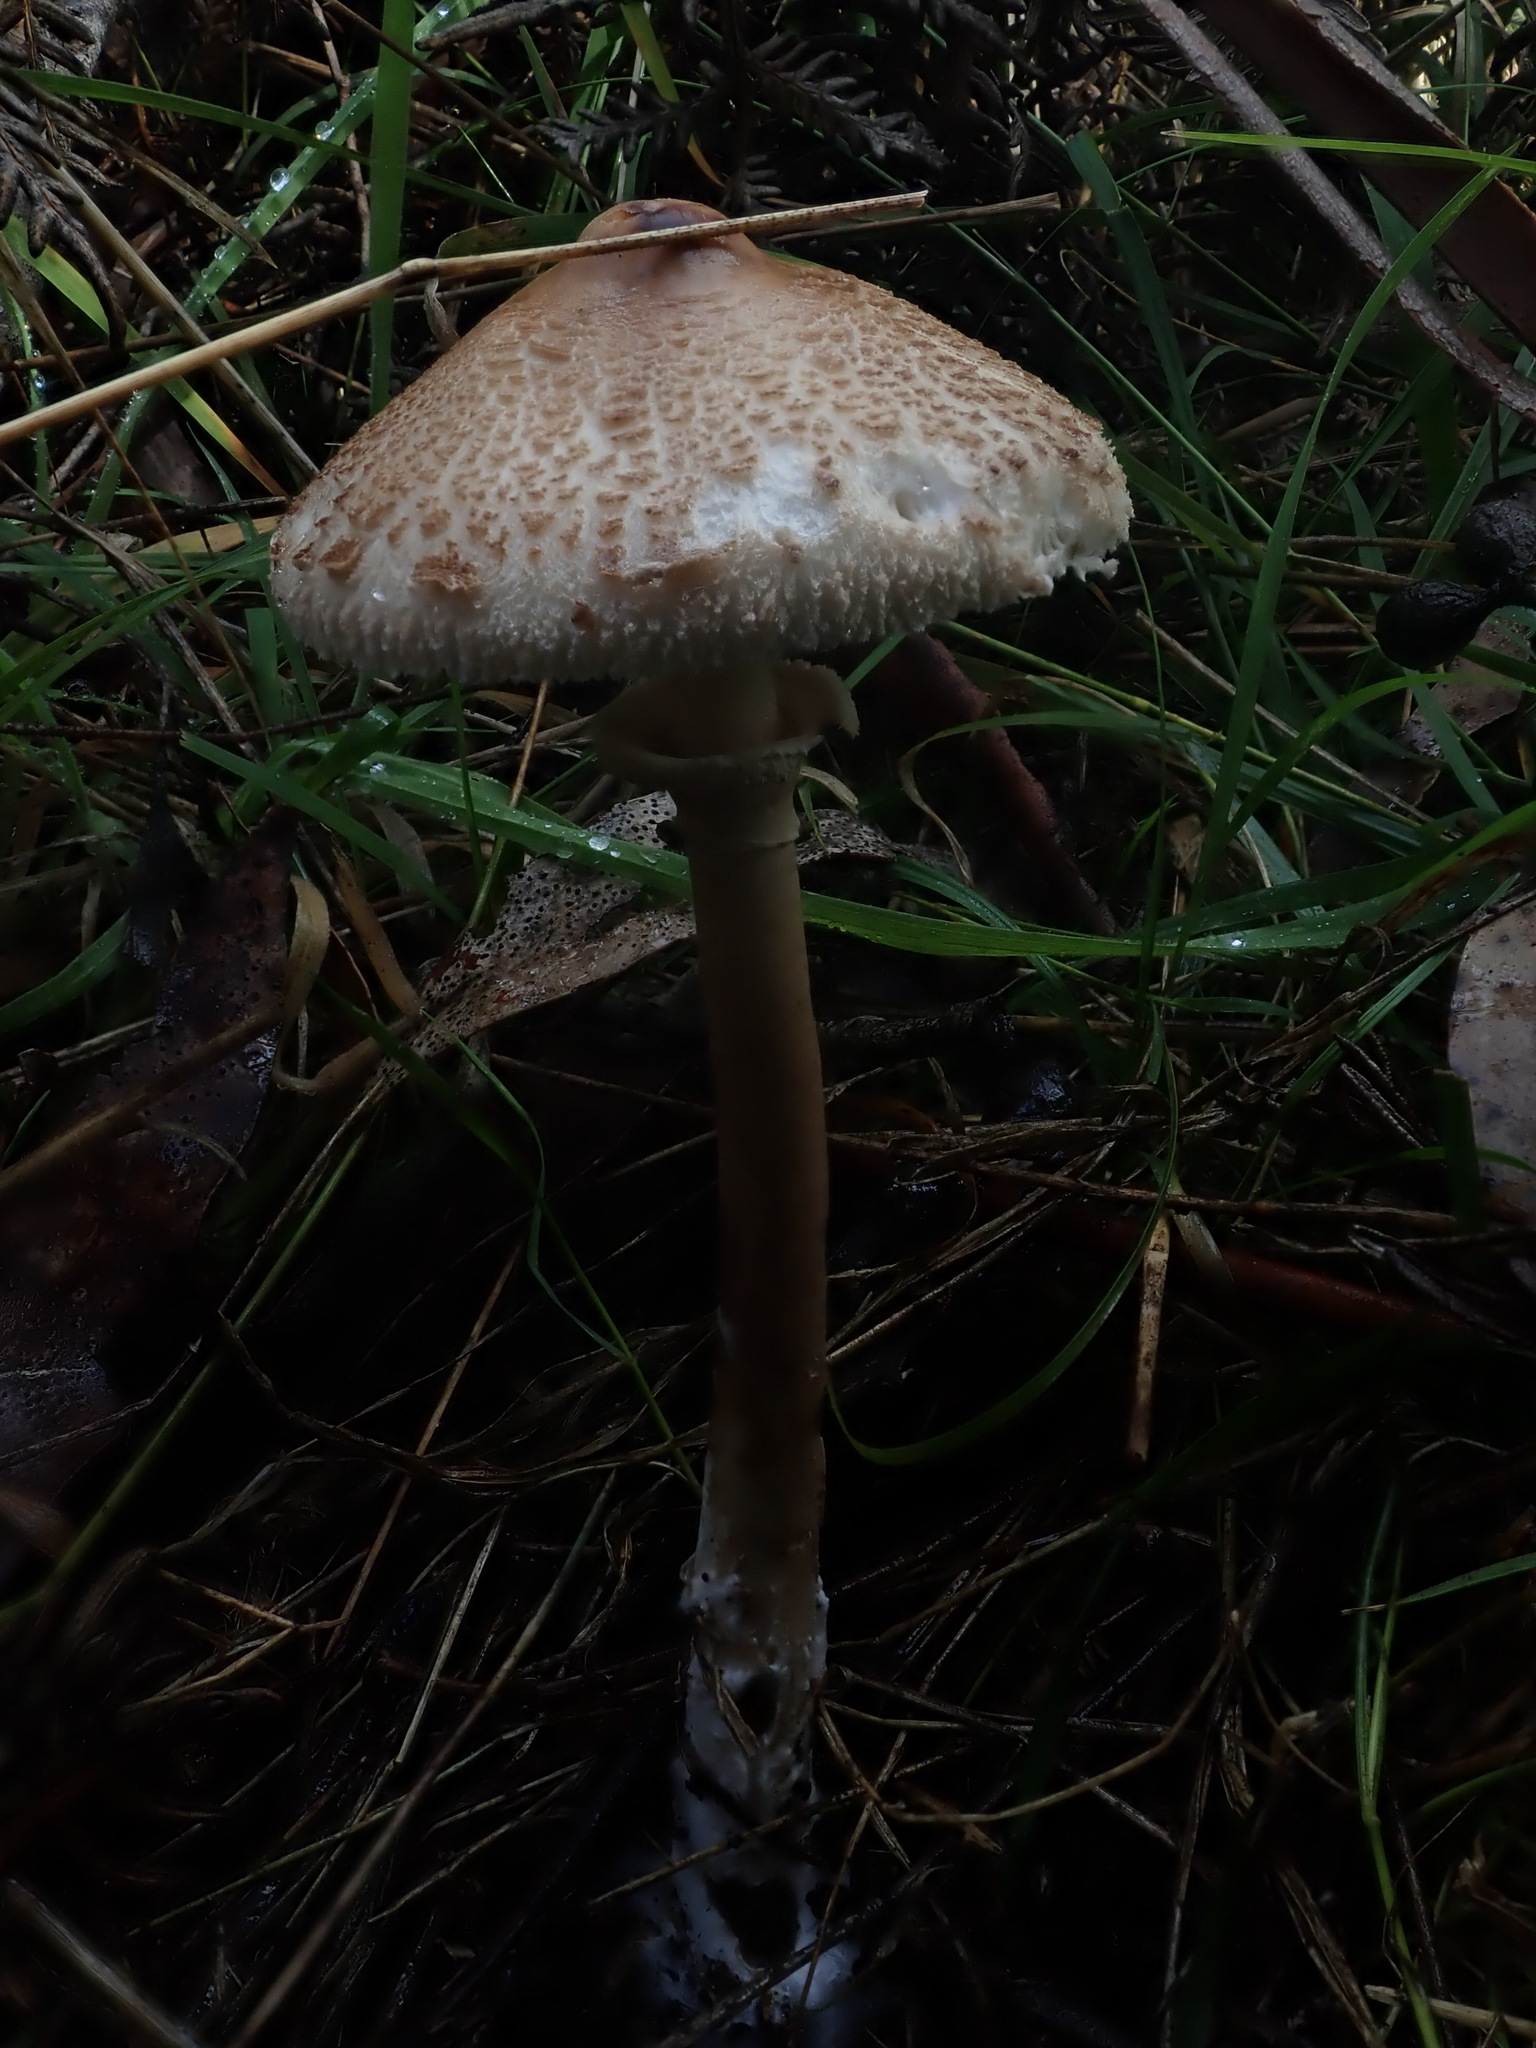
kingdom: Fungi
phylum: Basidiomycota
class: Agaricomycetes
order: Agaricales
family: Agaricaceae
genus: Macrolepiota
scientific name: Macrolepiota clelandii
